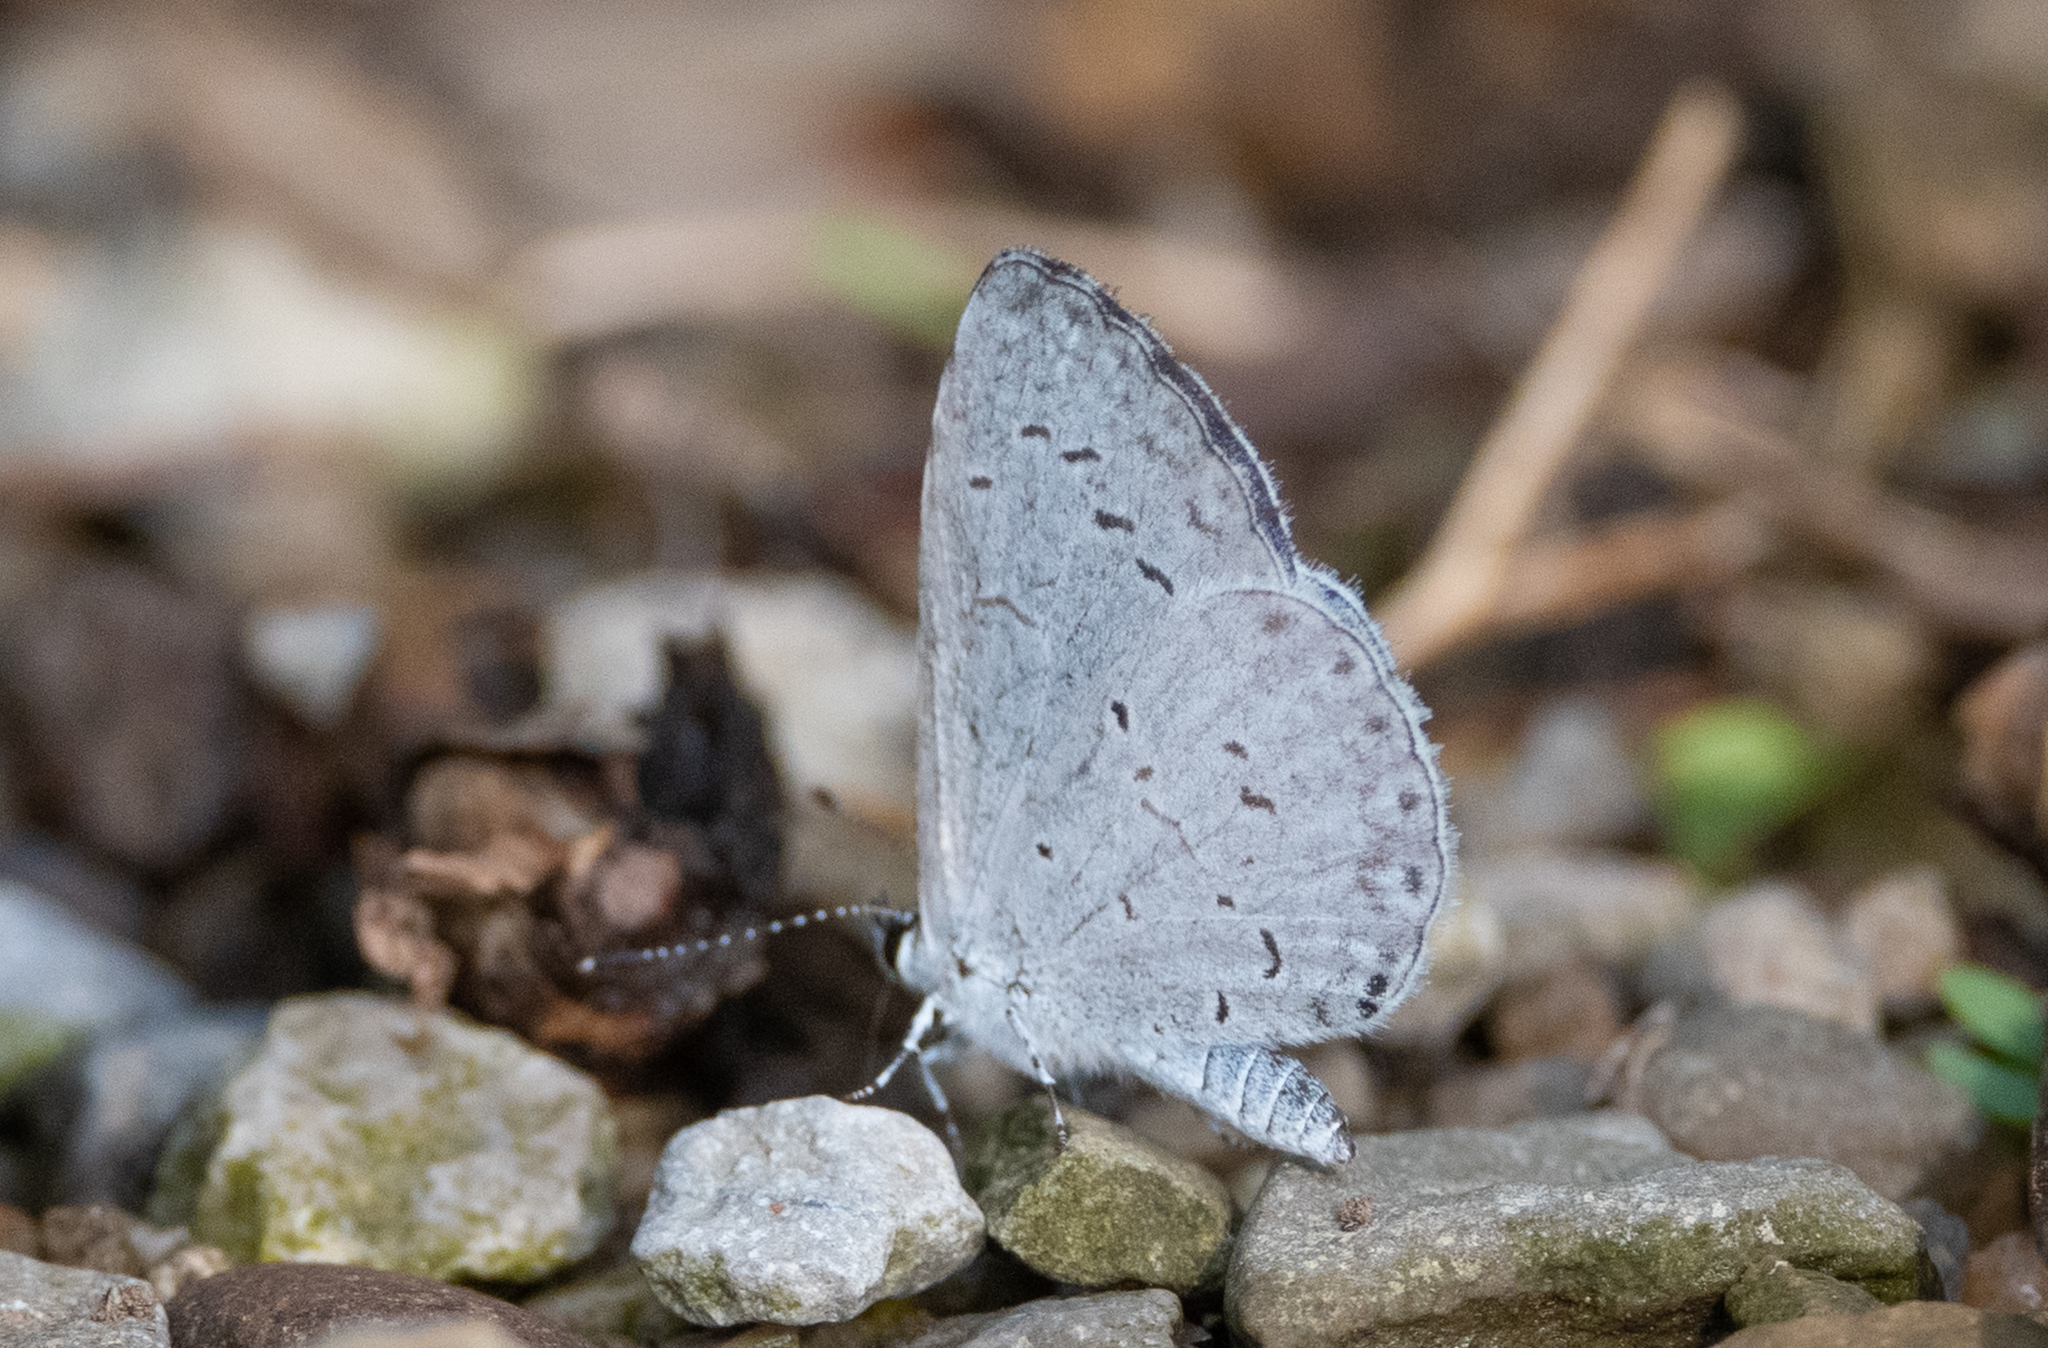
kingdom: Animalia
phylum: Arthropoda
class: Insecta
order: Lepidoptera
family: Lycaenidae
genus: Cyaniris
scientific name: Cyaniris neglecta
